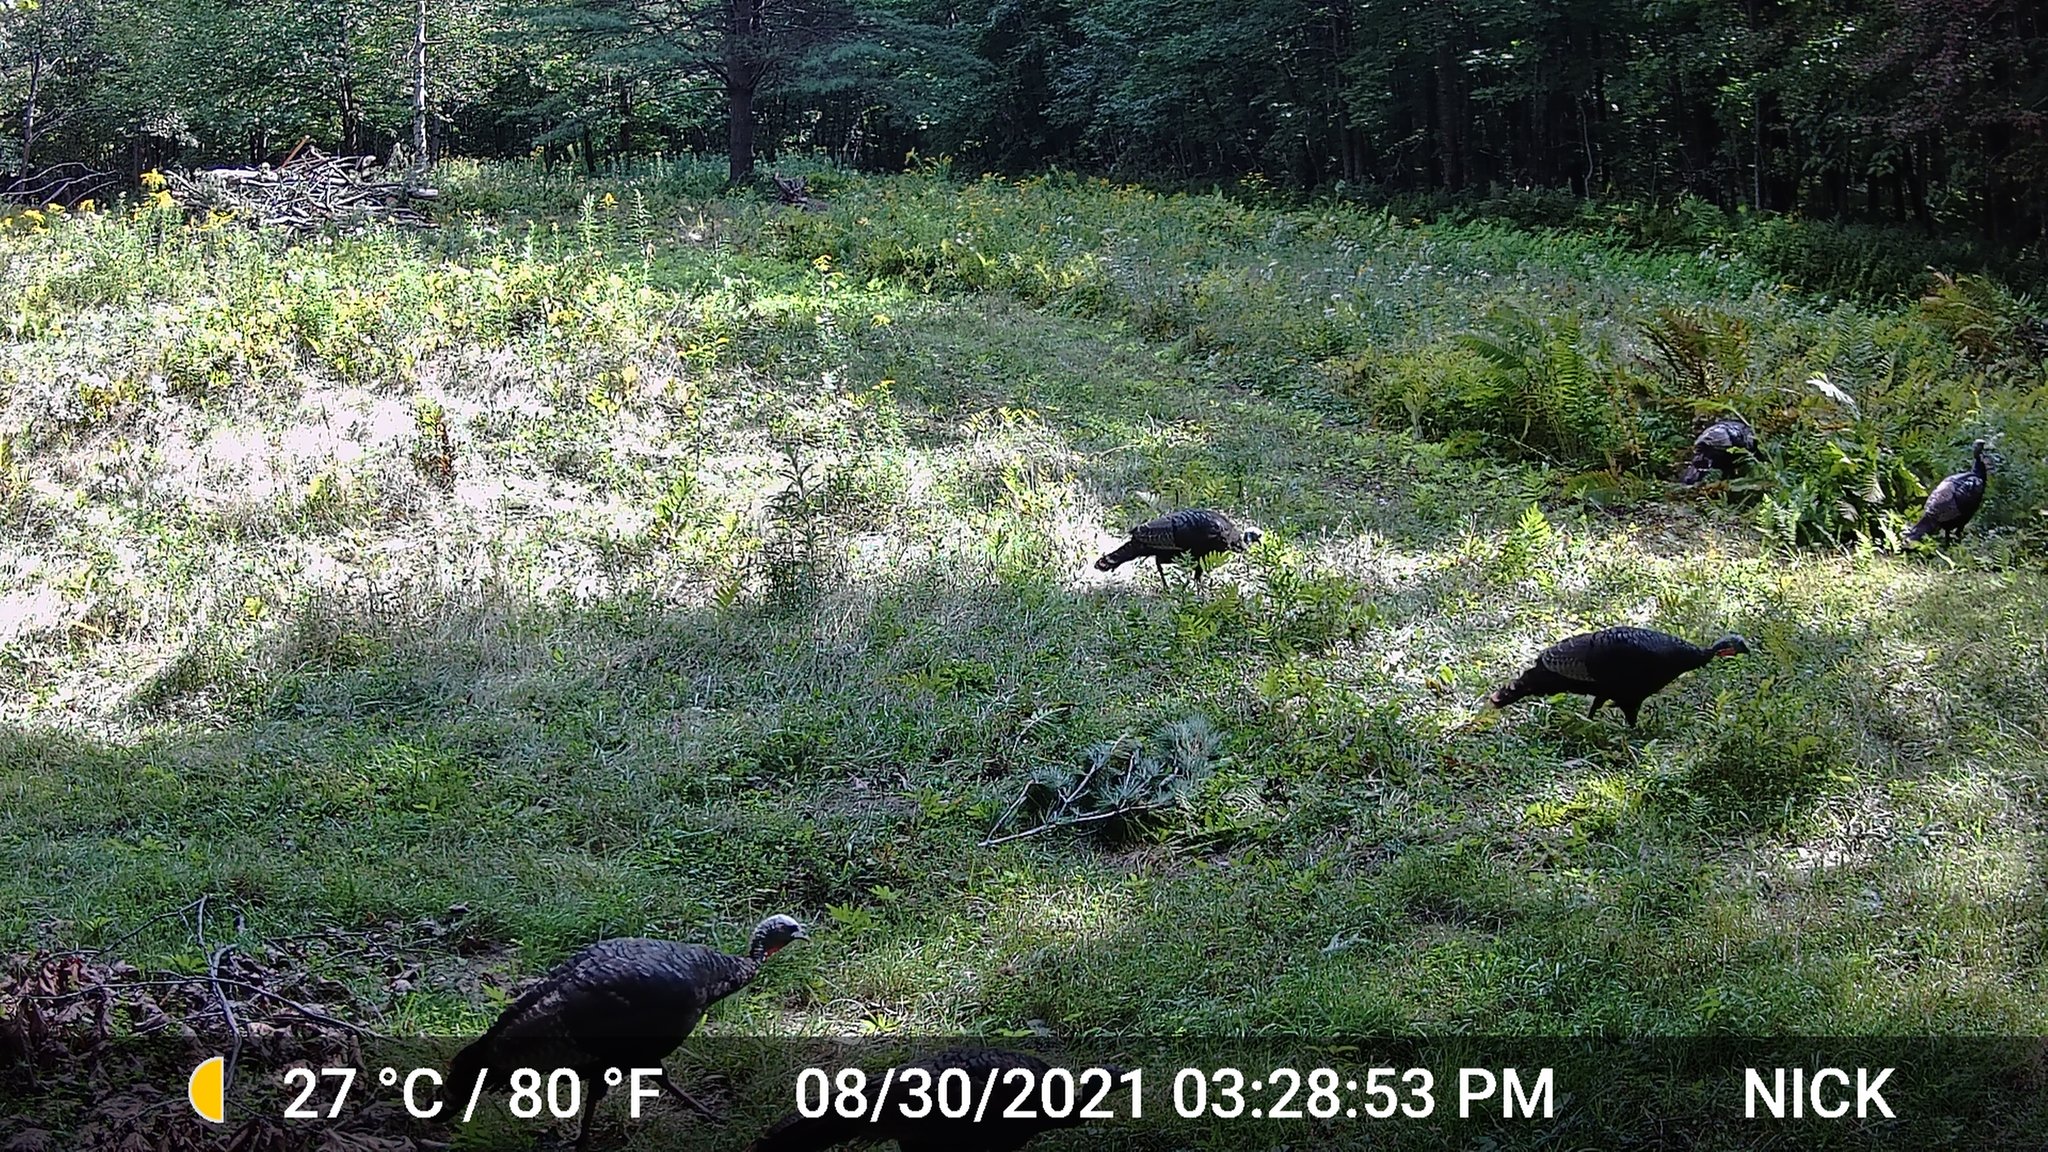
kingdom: Animalia
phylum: Chordata
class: Aves
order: Galliformes
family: Phasianidae
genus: Meleagris
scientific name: Meleagris gallopavo
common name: Wild turkey
